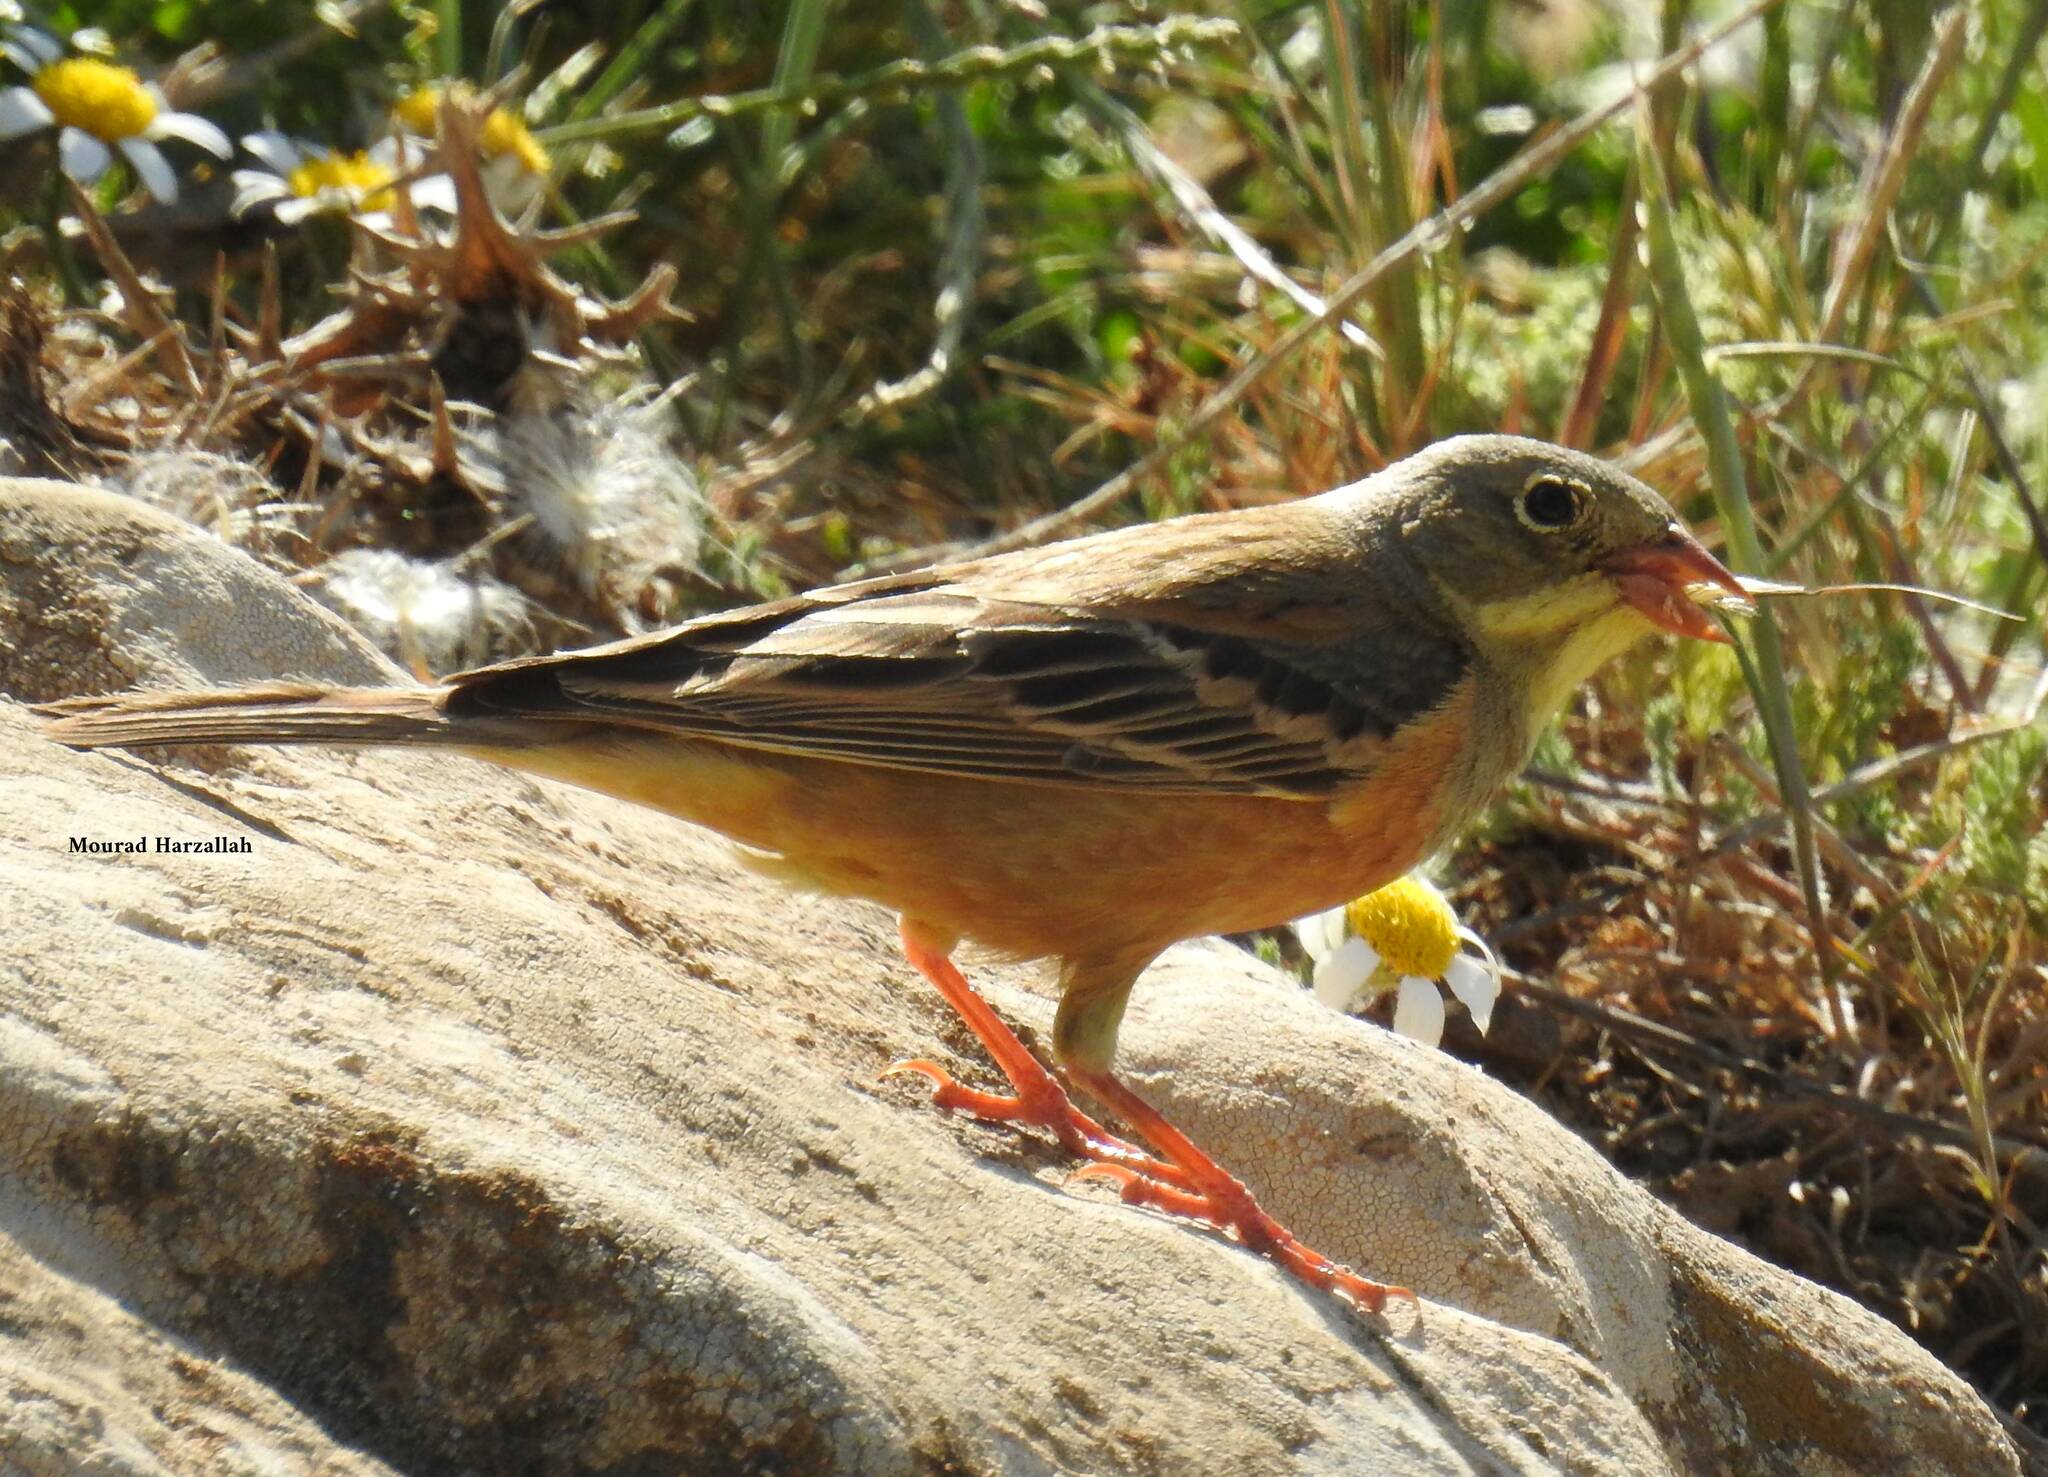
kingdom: Animalia
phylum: Chordata
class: Aves
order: Passeriformes
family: Emberizidae
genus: Emberiza
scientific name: Emberiza hortulana
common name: Ortolan bunting
